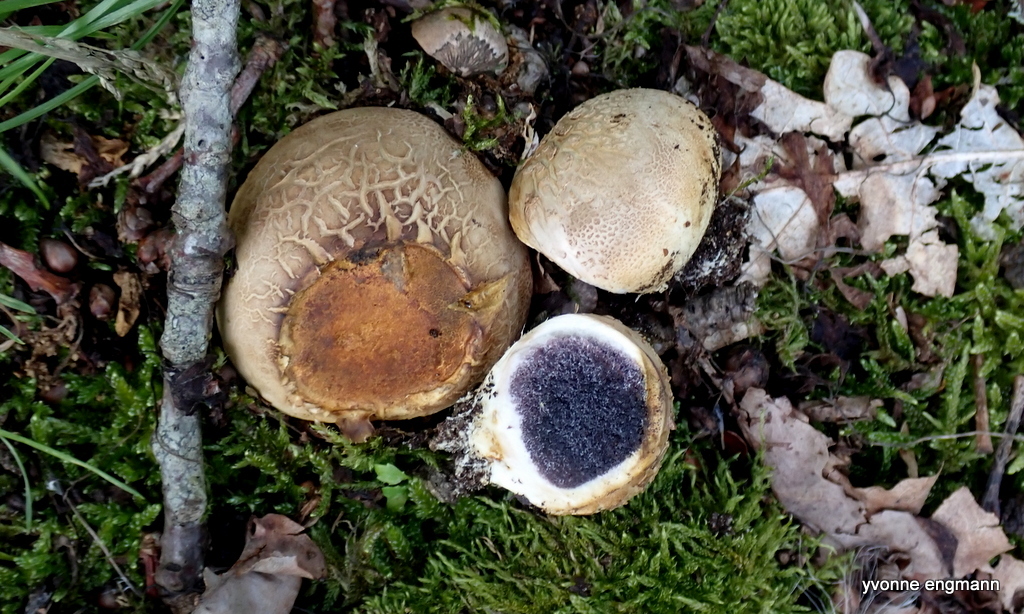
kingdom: Fungi
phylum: Basidiomycota
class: Agaricomycetes
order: Boletales
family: Sclerodermataceae
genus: Scleroderma
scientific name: Scleroderma citrinum
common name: Common earthball
